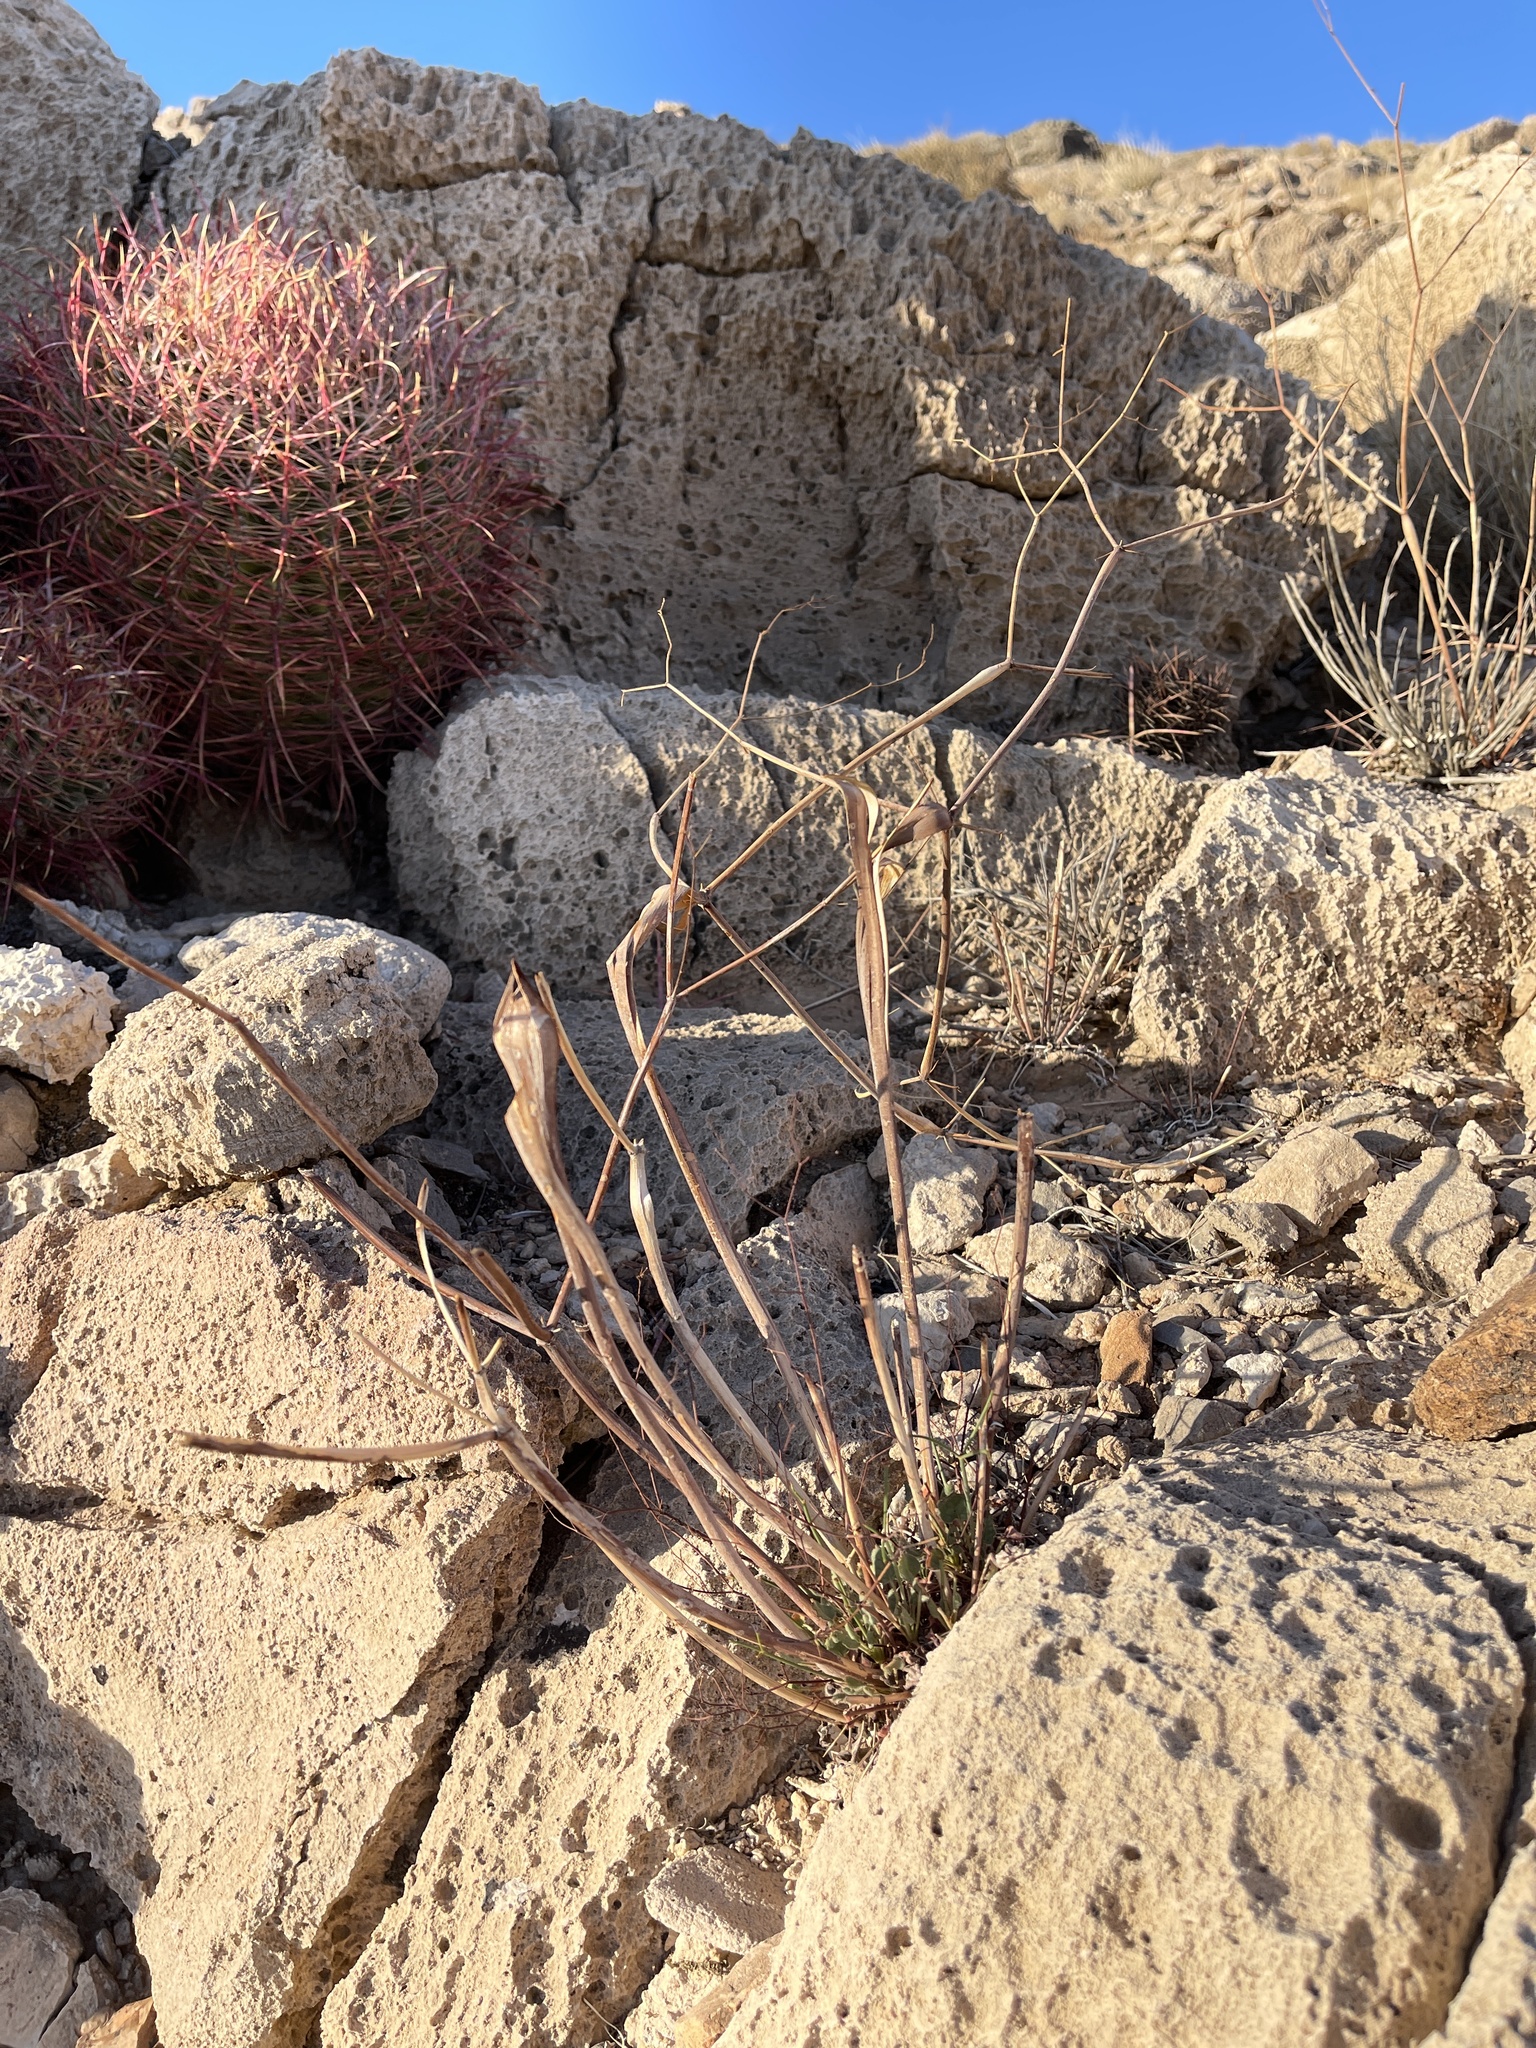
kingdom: Plantae
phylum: Tracheophyta
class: Magnoliopsida
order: Caryophyllales
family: Polygonaceae
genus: Eriogonum
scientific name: Eriogonum inflatum
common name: Desert trumpet
